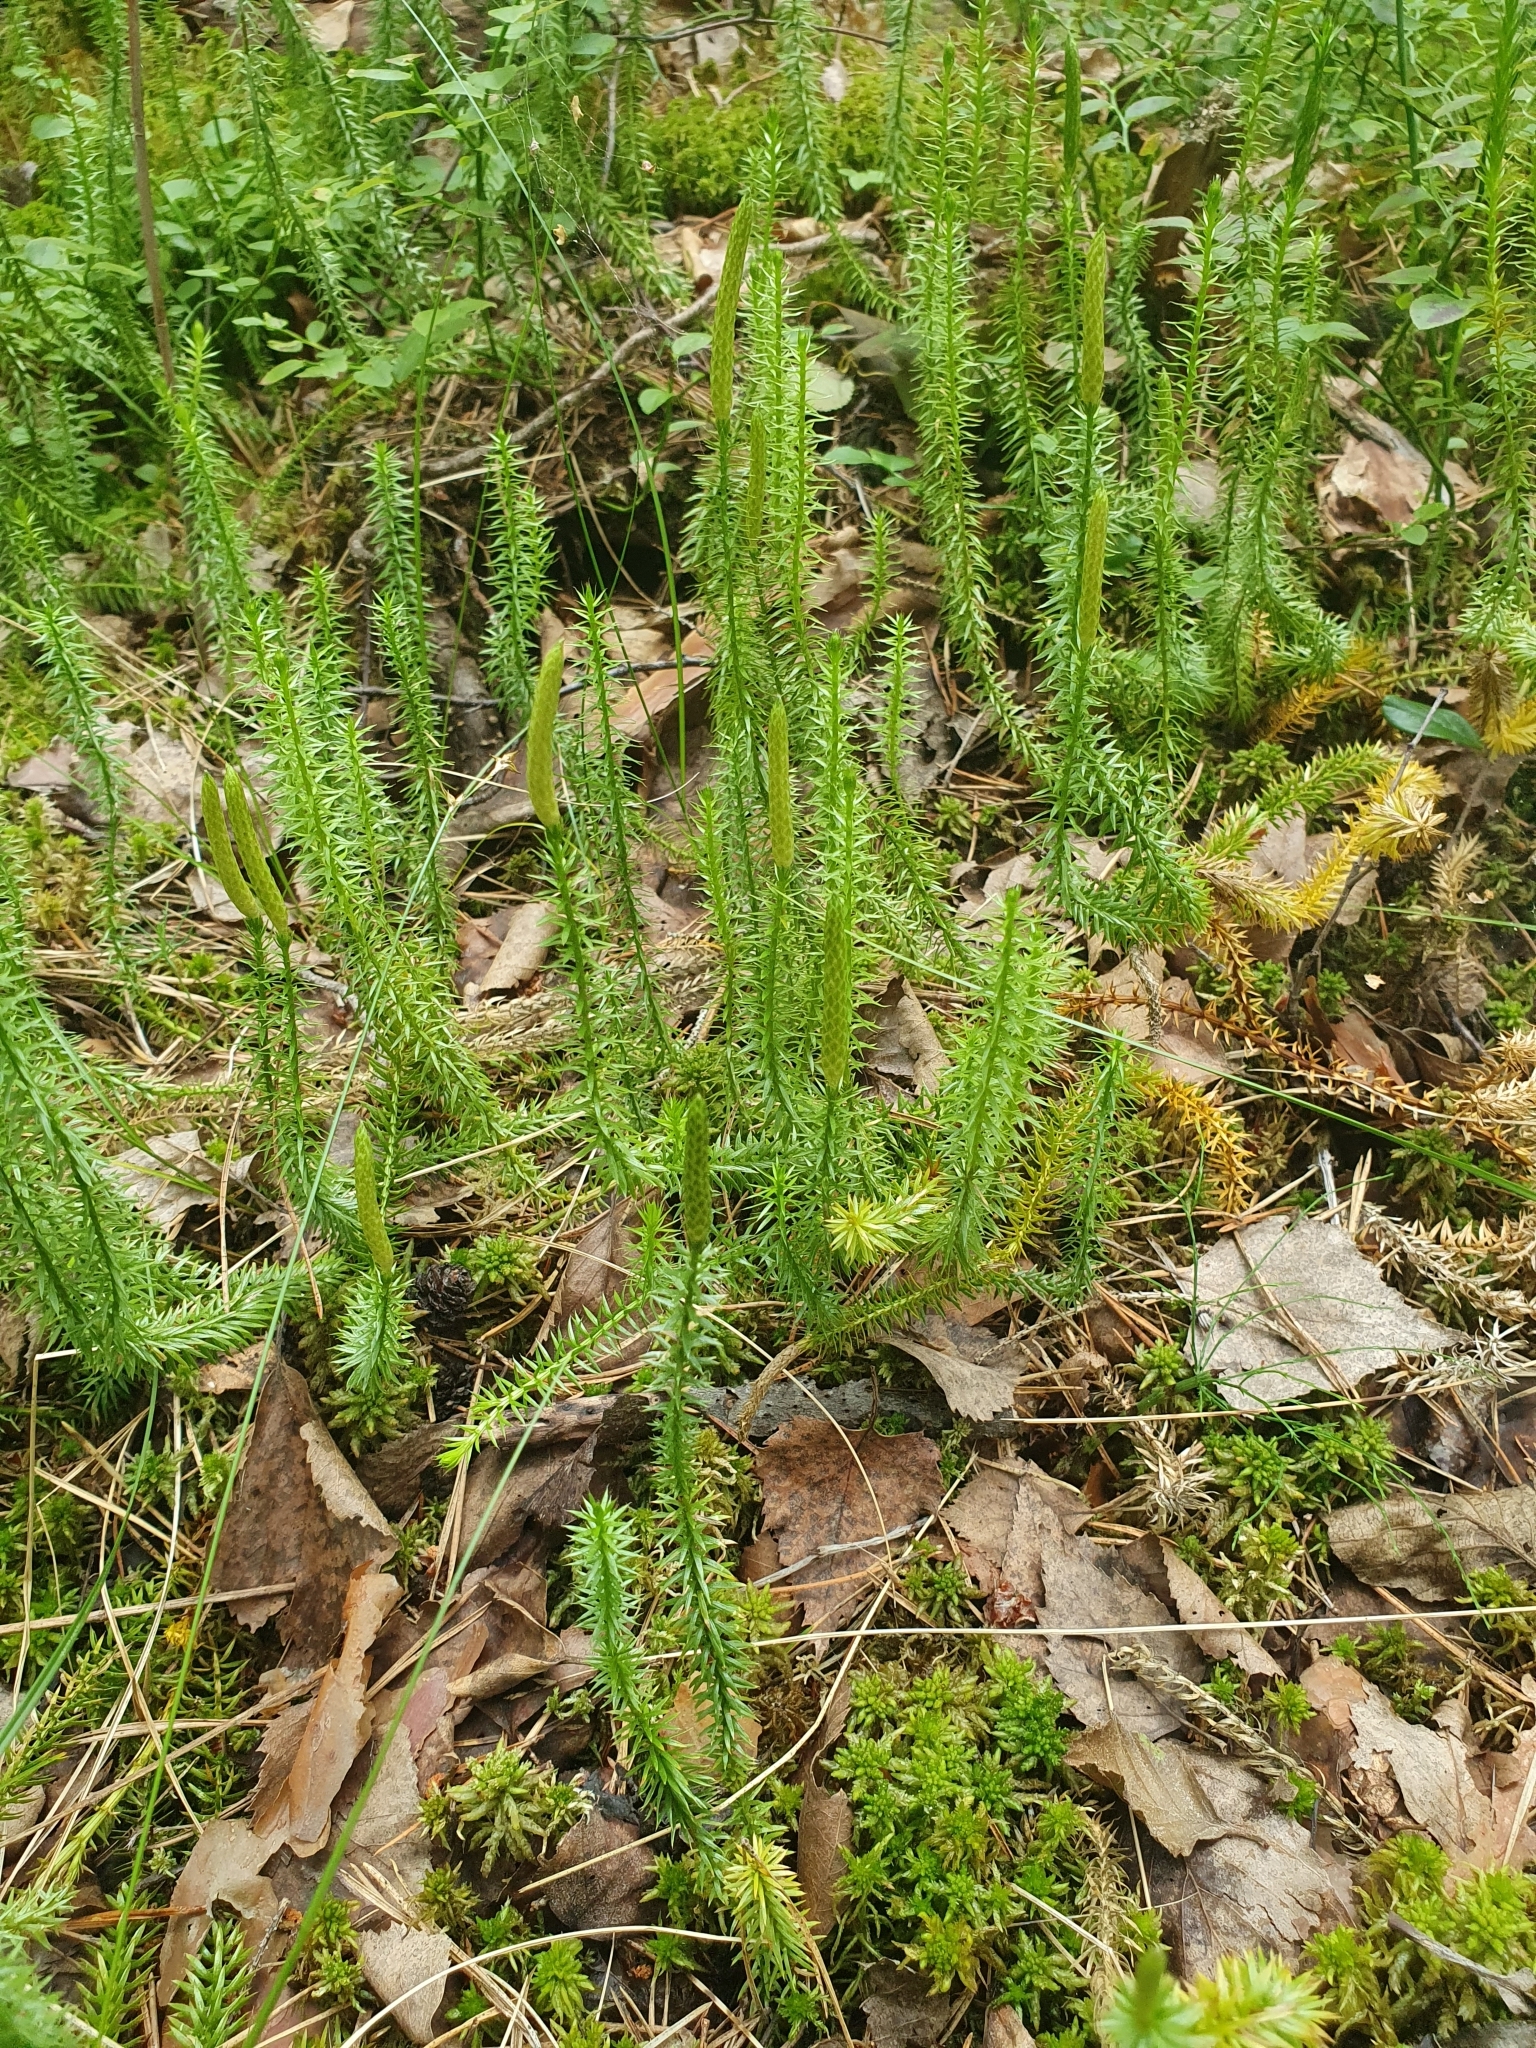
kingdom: Plantae
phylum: Tracheophyta
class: Lycopodiopsida
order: Lycopodiales
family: Lycopodiaceae
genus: Spinulum
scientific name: Spinulum annotinum
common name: Interrupted club-moss
